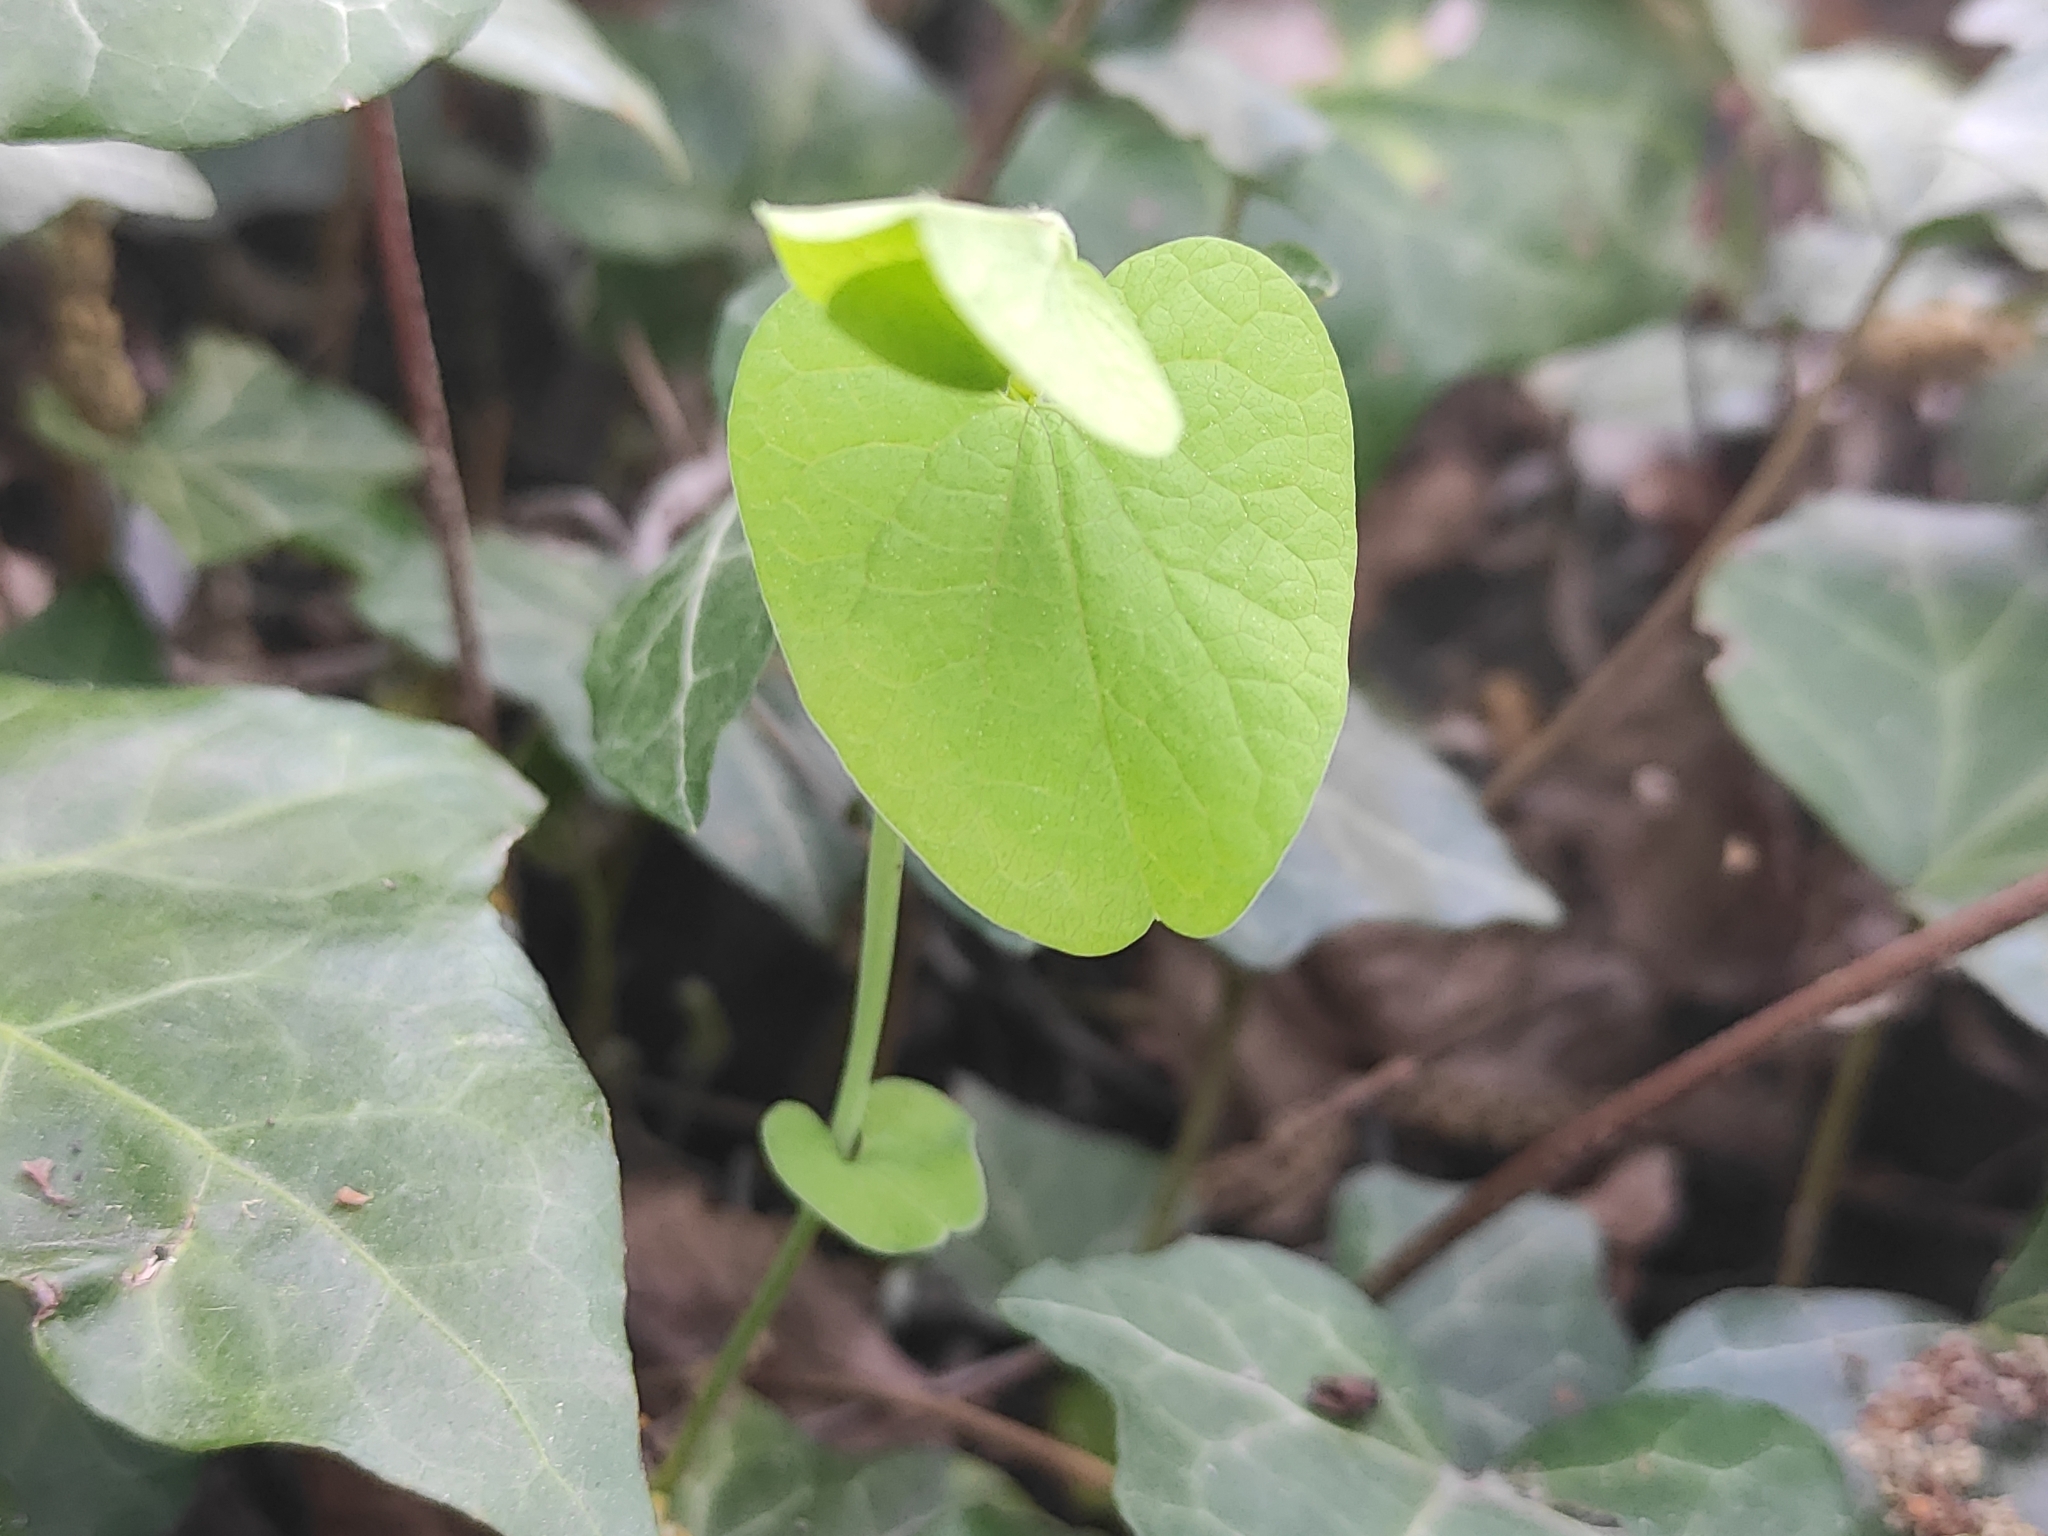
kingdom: Plantae
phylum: Tracheophyta
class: Magnoliopsida
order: Piperales
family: Aristolochiaceae
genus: Aristolochia
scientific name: Aristolochia rotunda
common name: Smearwort
